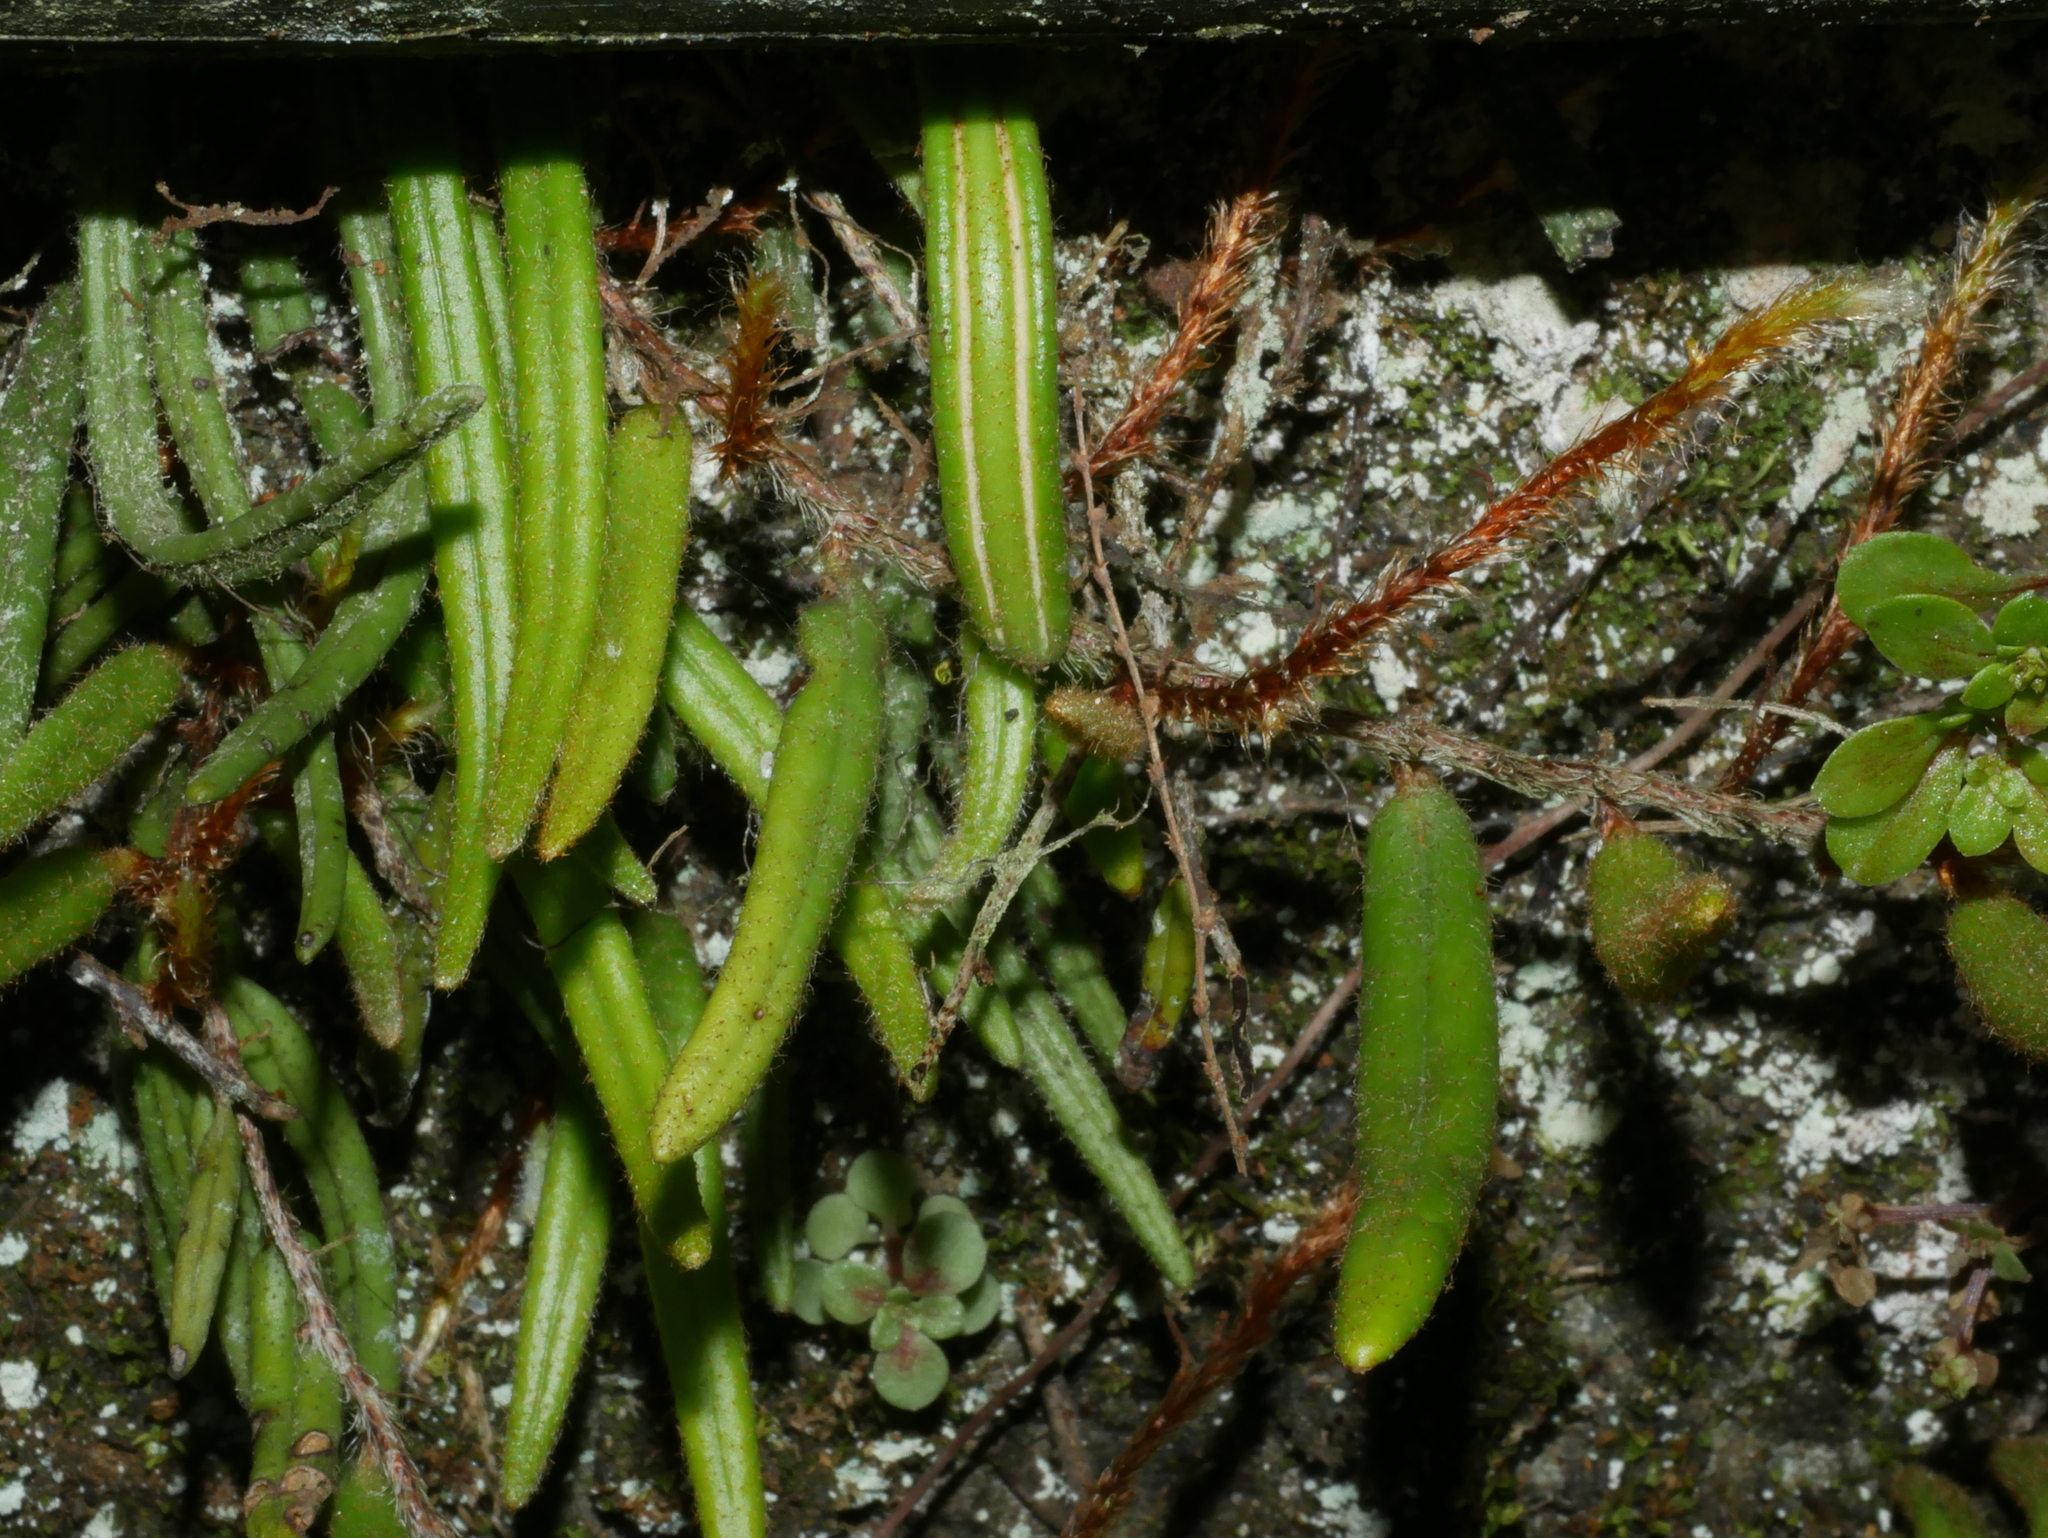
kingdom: Plantae
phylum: Tracheophyta
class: Polypodiopsida
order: Polypodiales
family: Polypodiaceae
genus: Pyrrosia
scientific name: Pyrrosia angustissima
